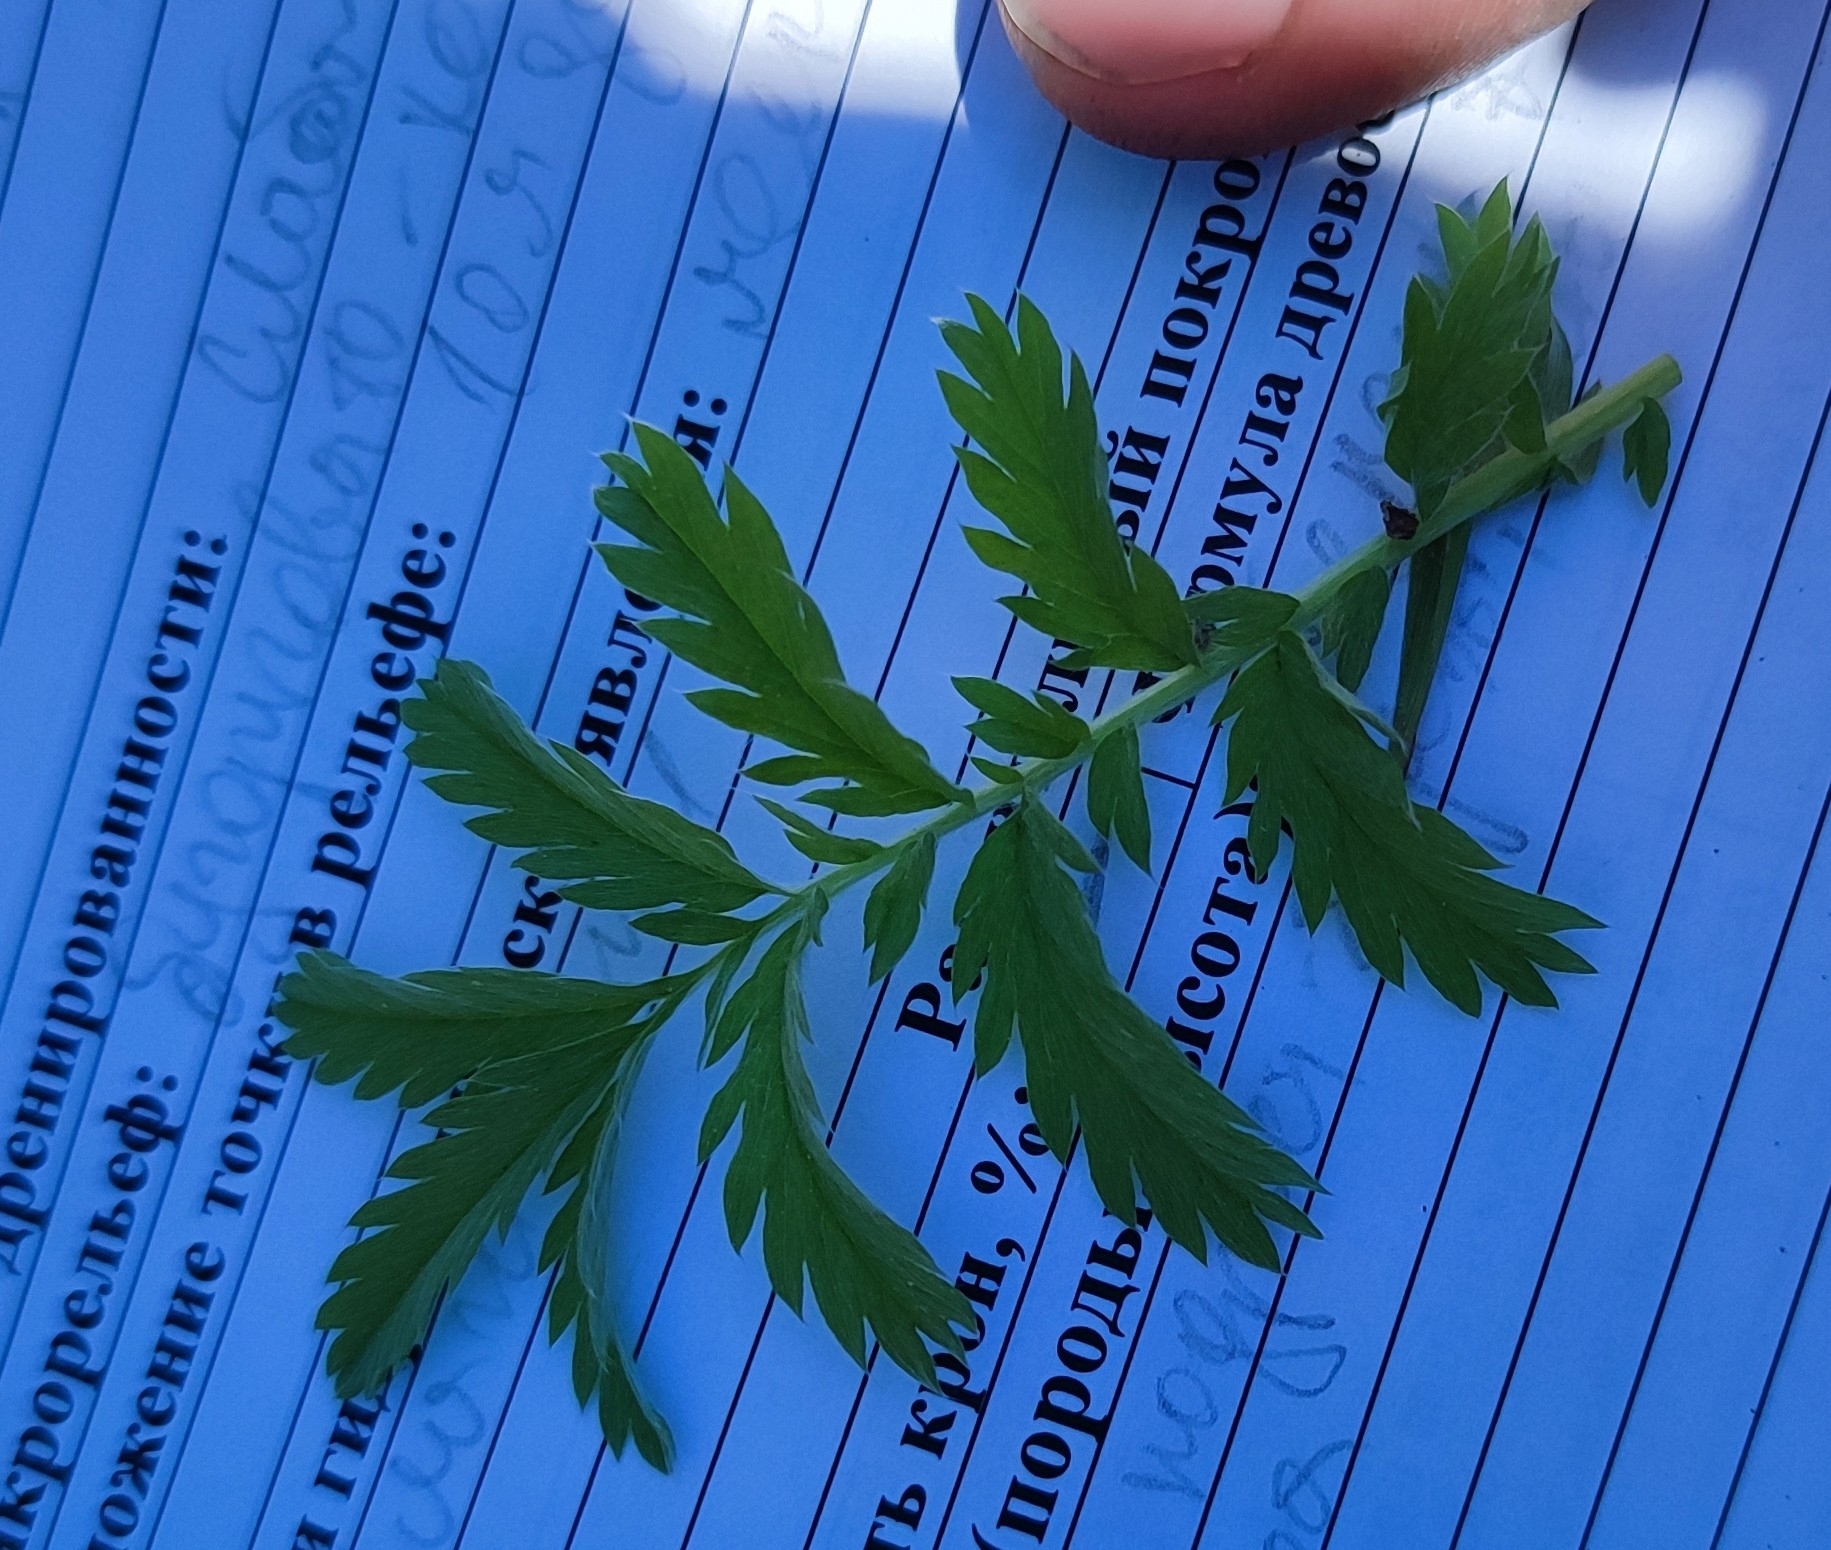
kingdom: Plantae
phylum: Tracheophyta
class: Magnoliopsida
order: Rosales
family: Rosaceae
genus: Argentina
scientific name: Argentina anserina
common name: Common silverweed
